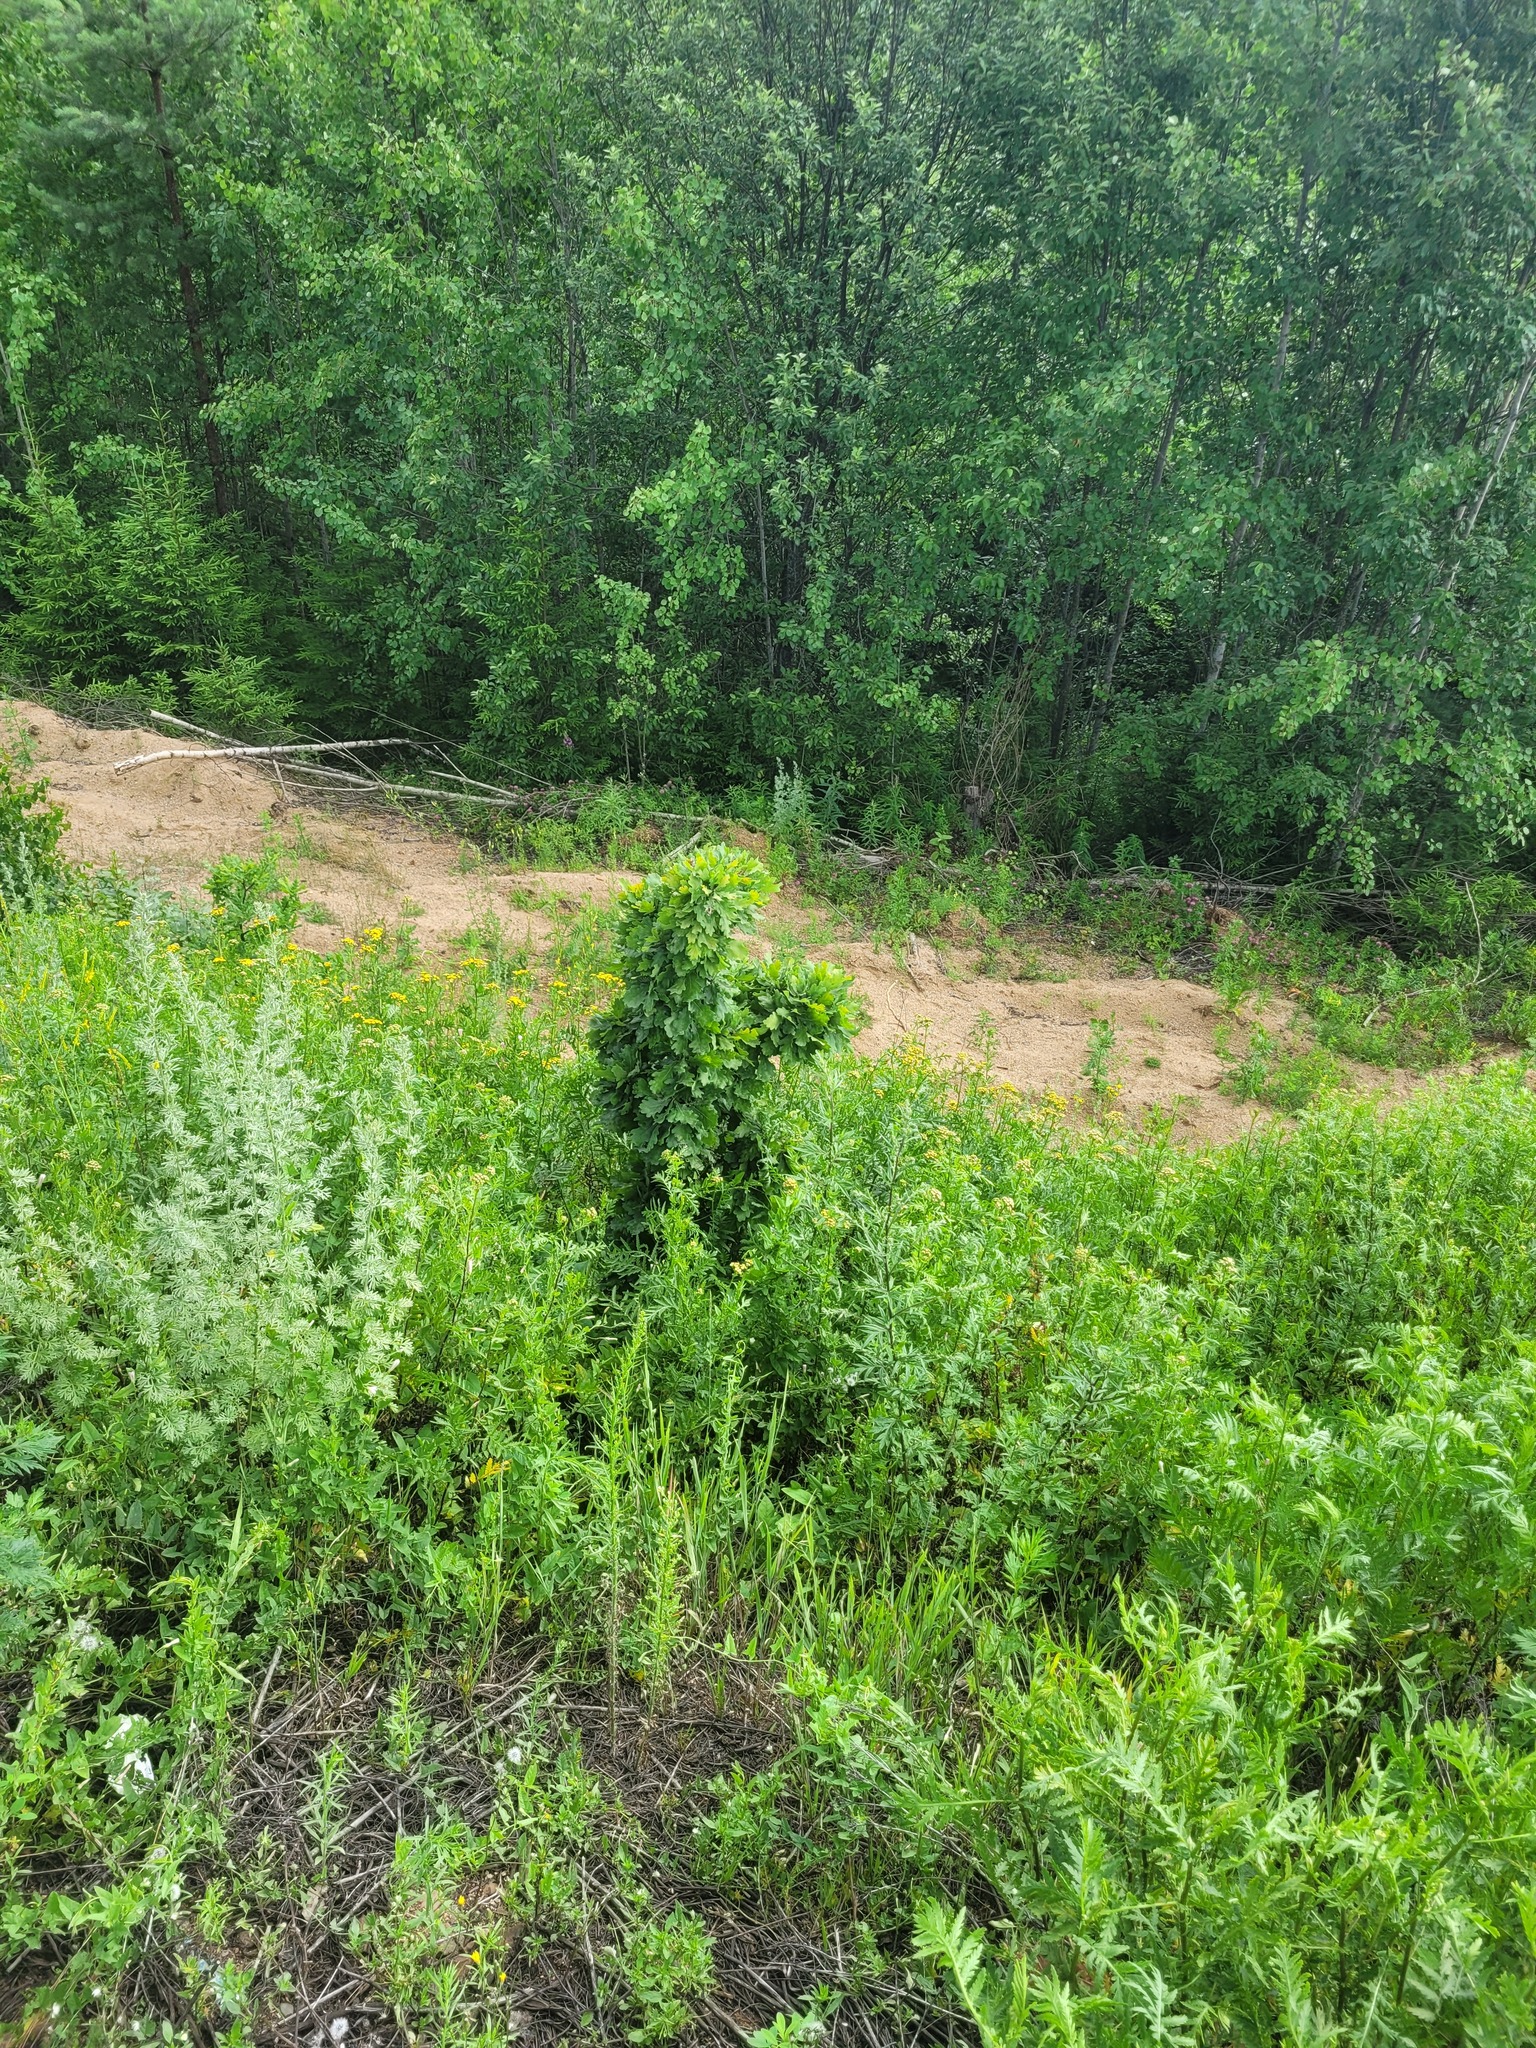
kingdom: Plantae
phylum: Tracheophyta
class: Magnoliopsida
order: Fagales
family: Fagaceae
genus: Quercus
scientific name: Quercus robur
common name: Pedunculate oak
